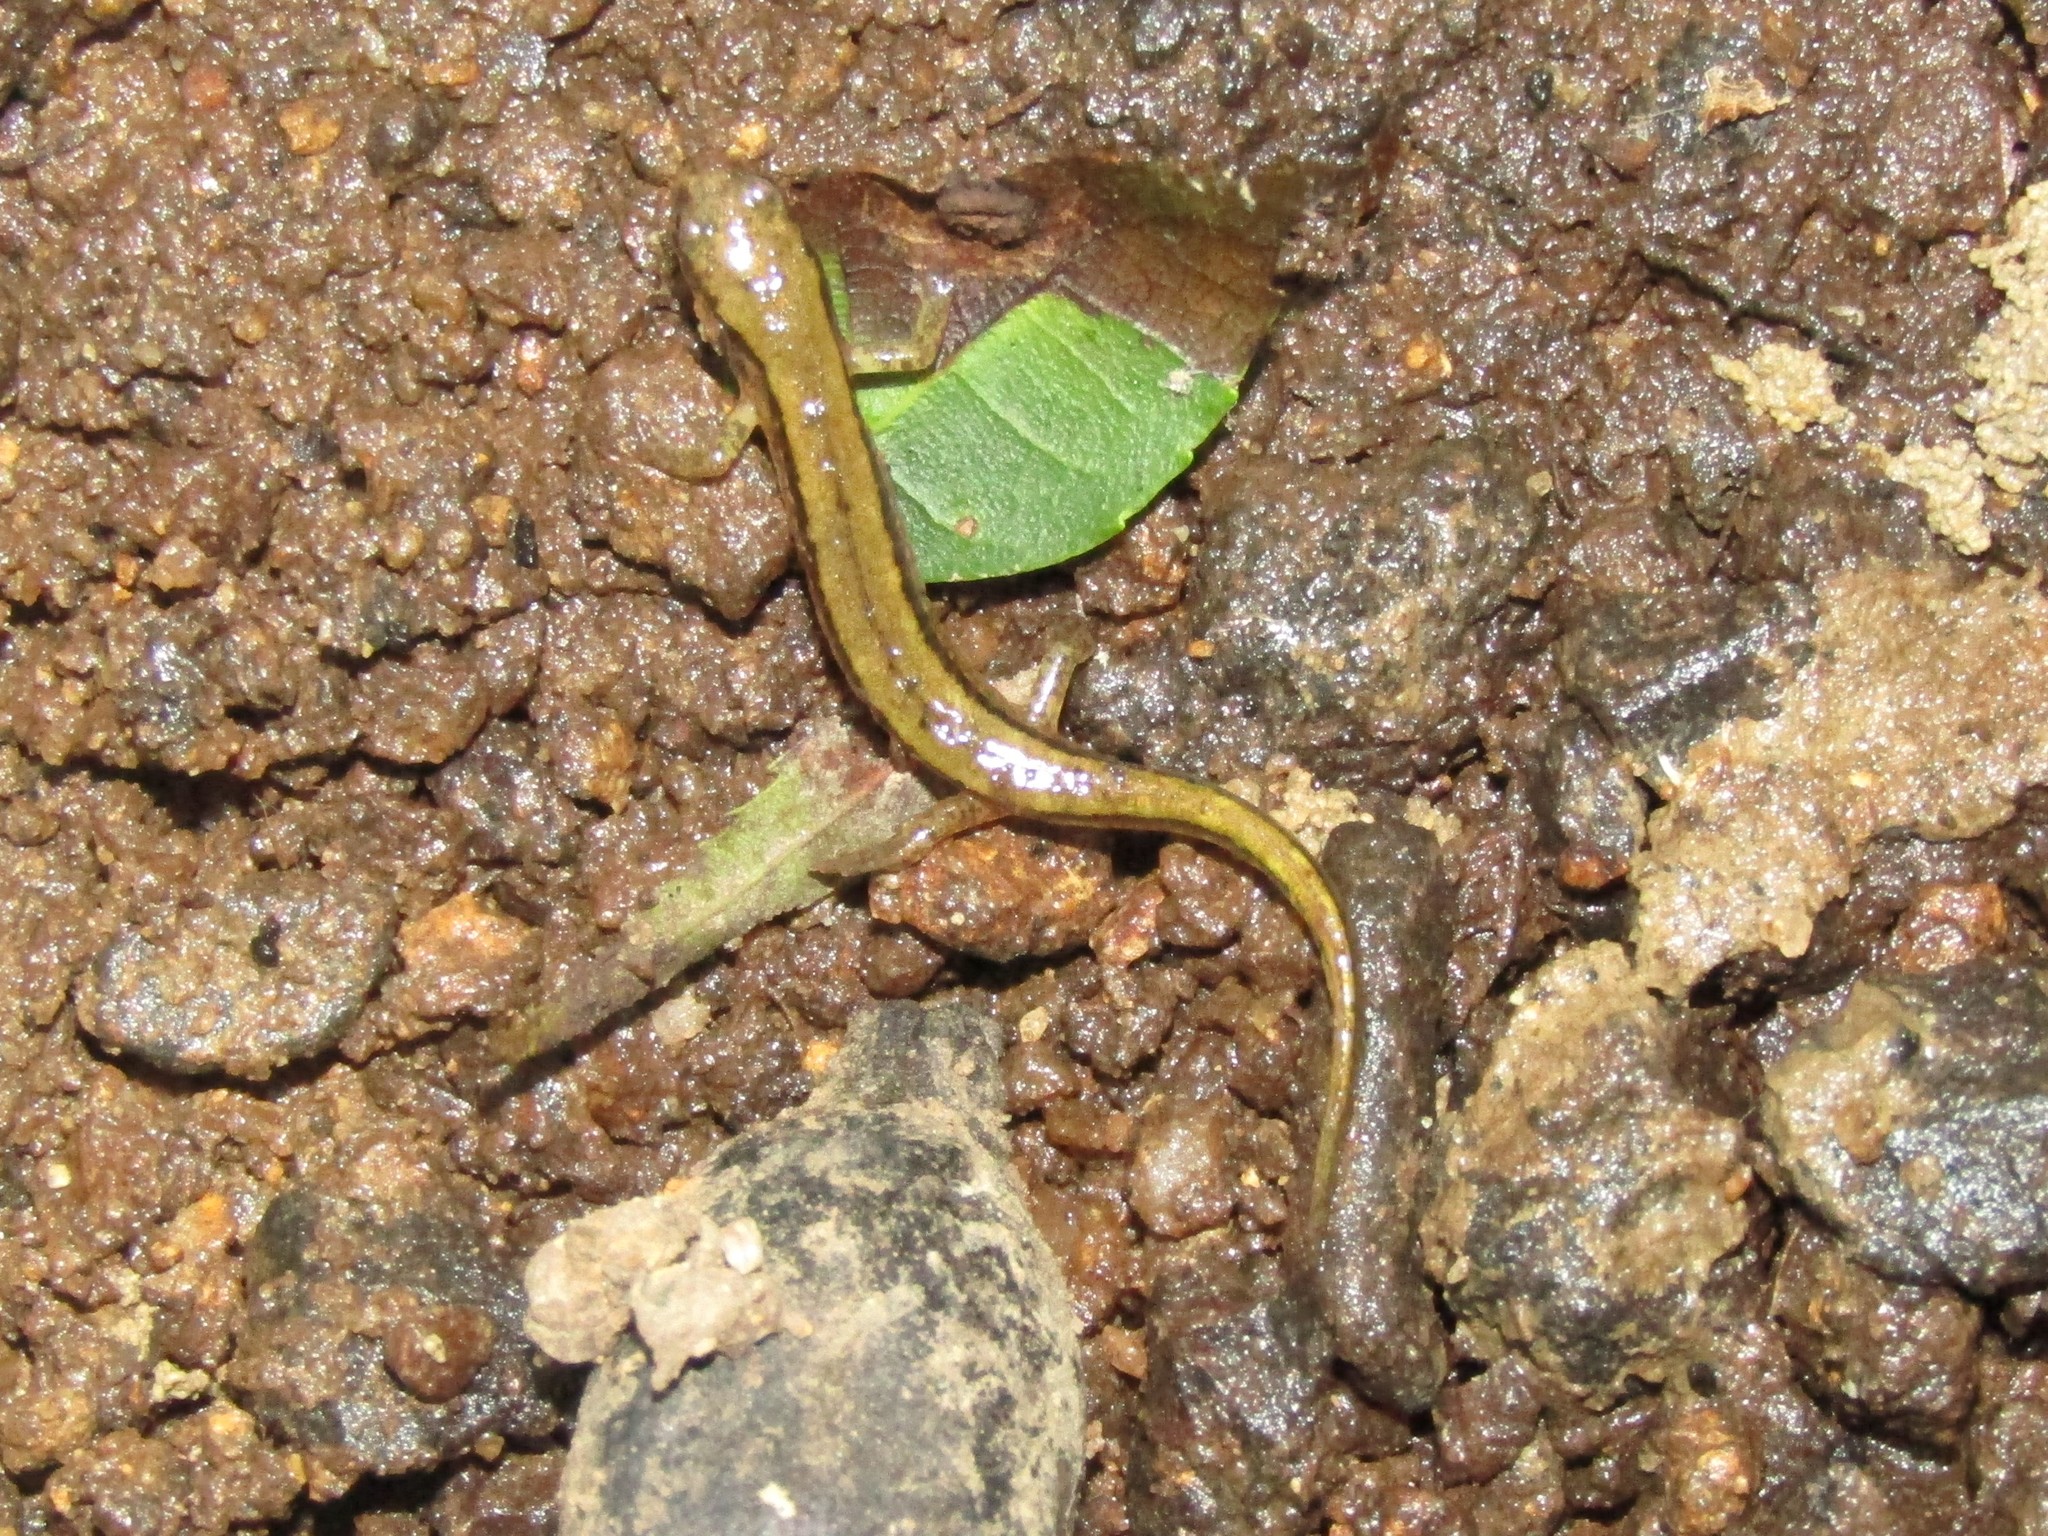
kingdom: Animalia
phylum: Chordata
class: Amphibia
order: Caudata
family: Plethodontidae
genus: Eurycea
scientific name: Eurycea cirrigera
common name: Southern two-lined salamander
